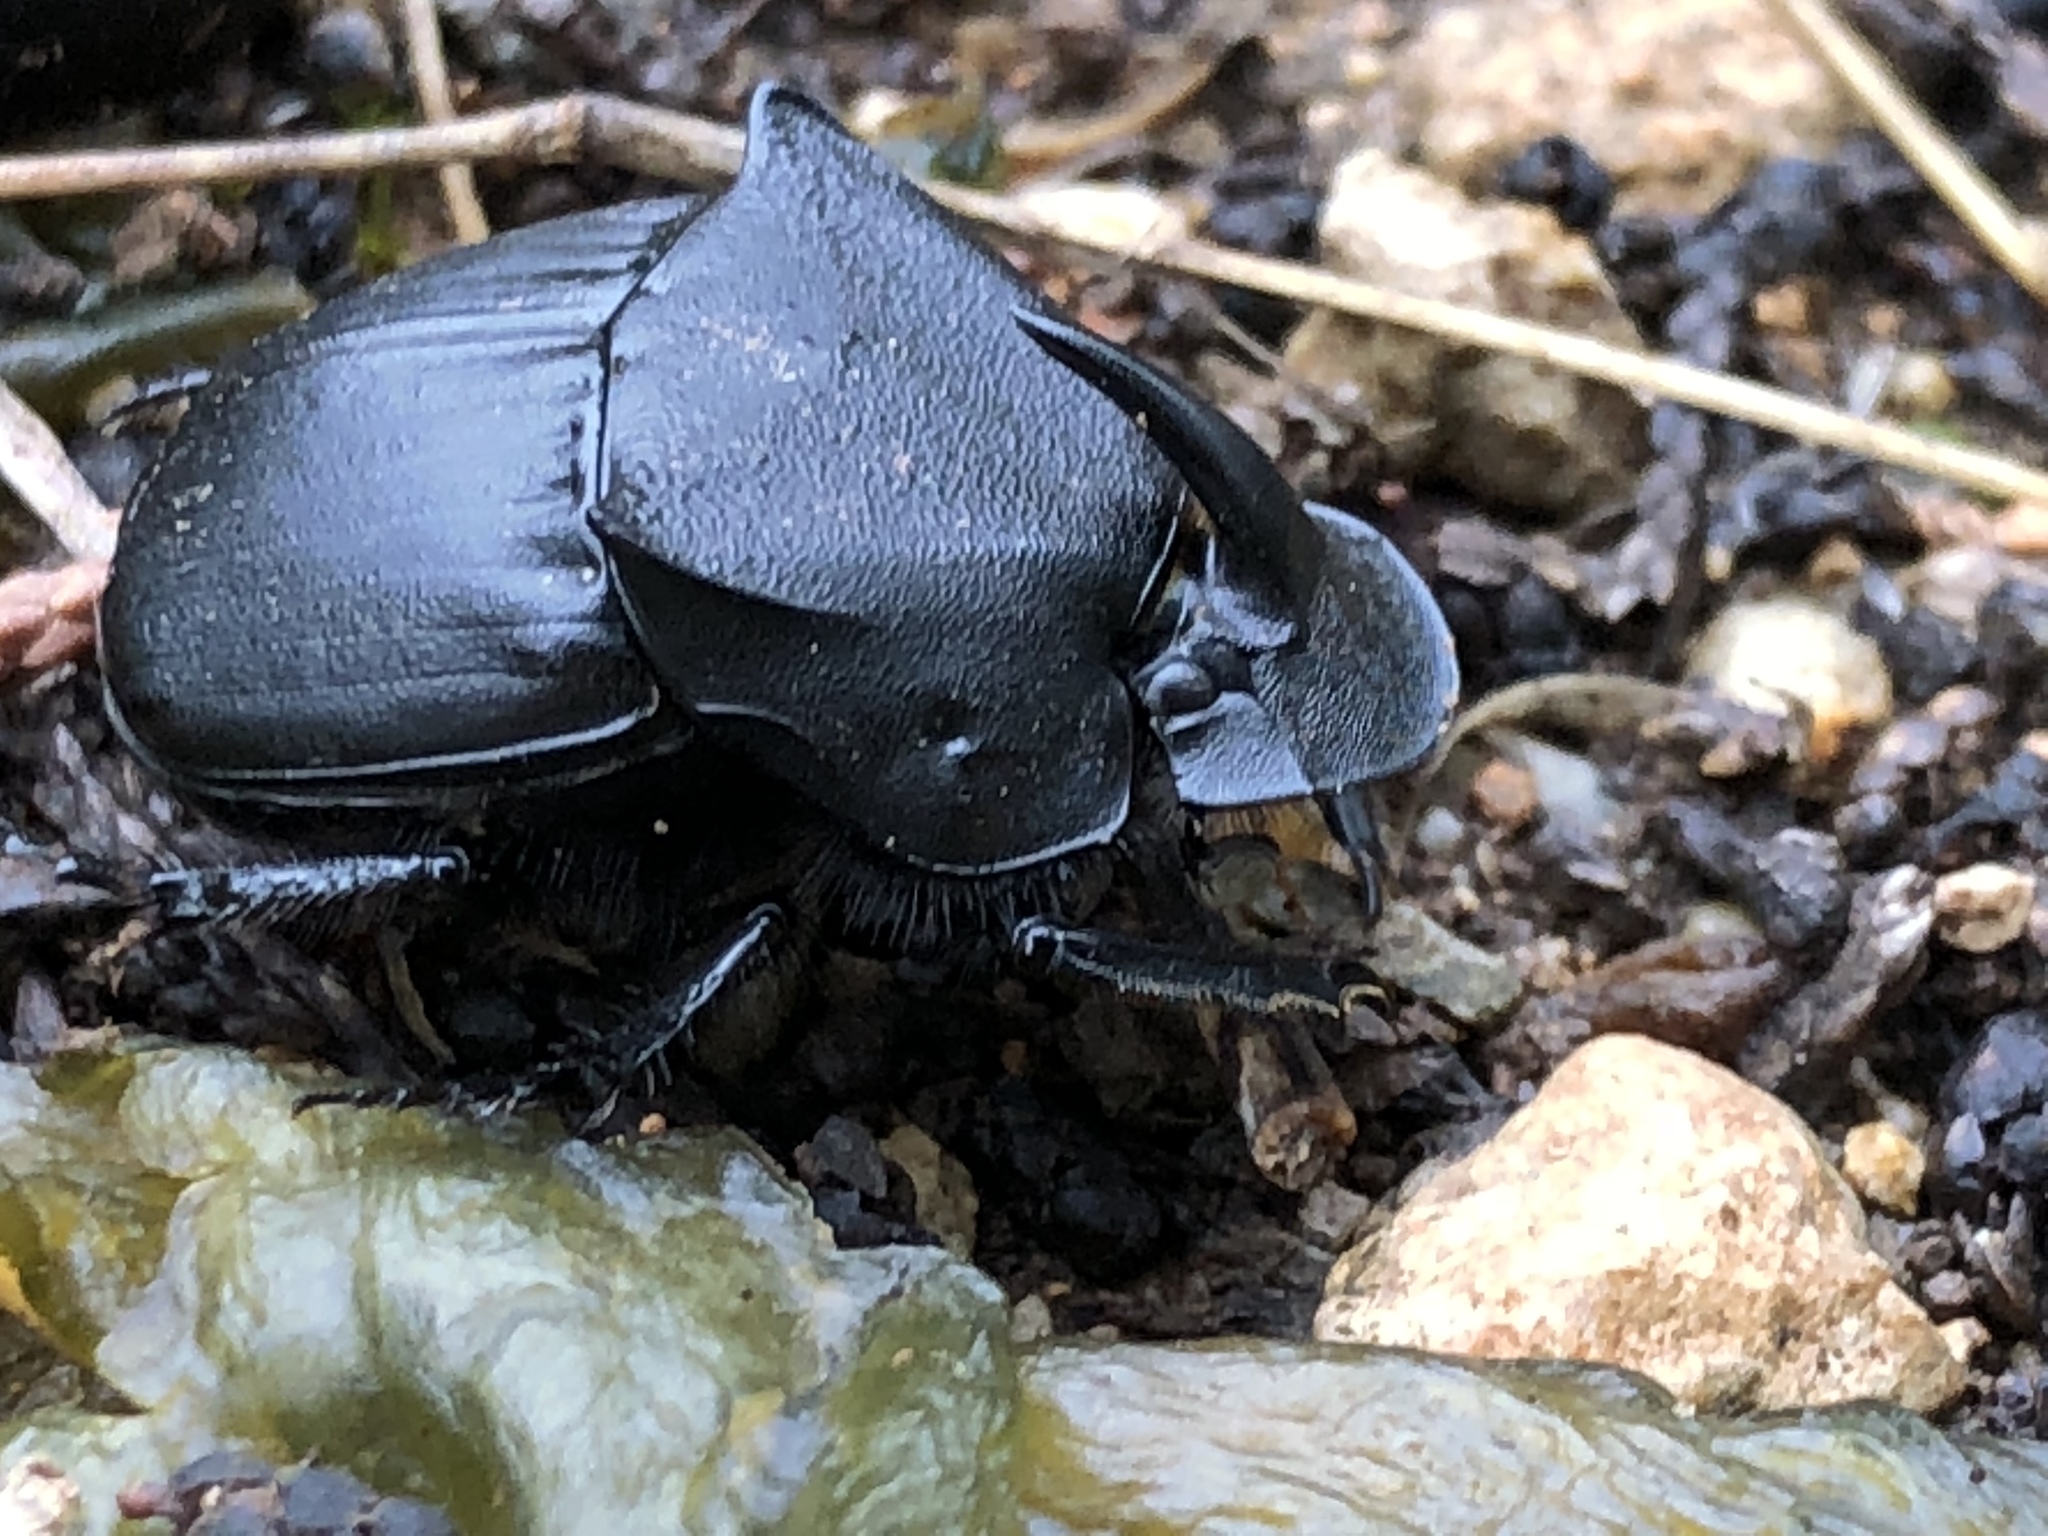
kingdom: Animalia
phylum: Arthropoda
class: Insecta
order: Coleoptera
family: Scarabaeidae
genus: Phanaeus
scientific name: Phanaeus texensis
